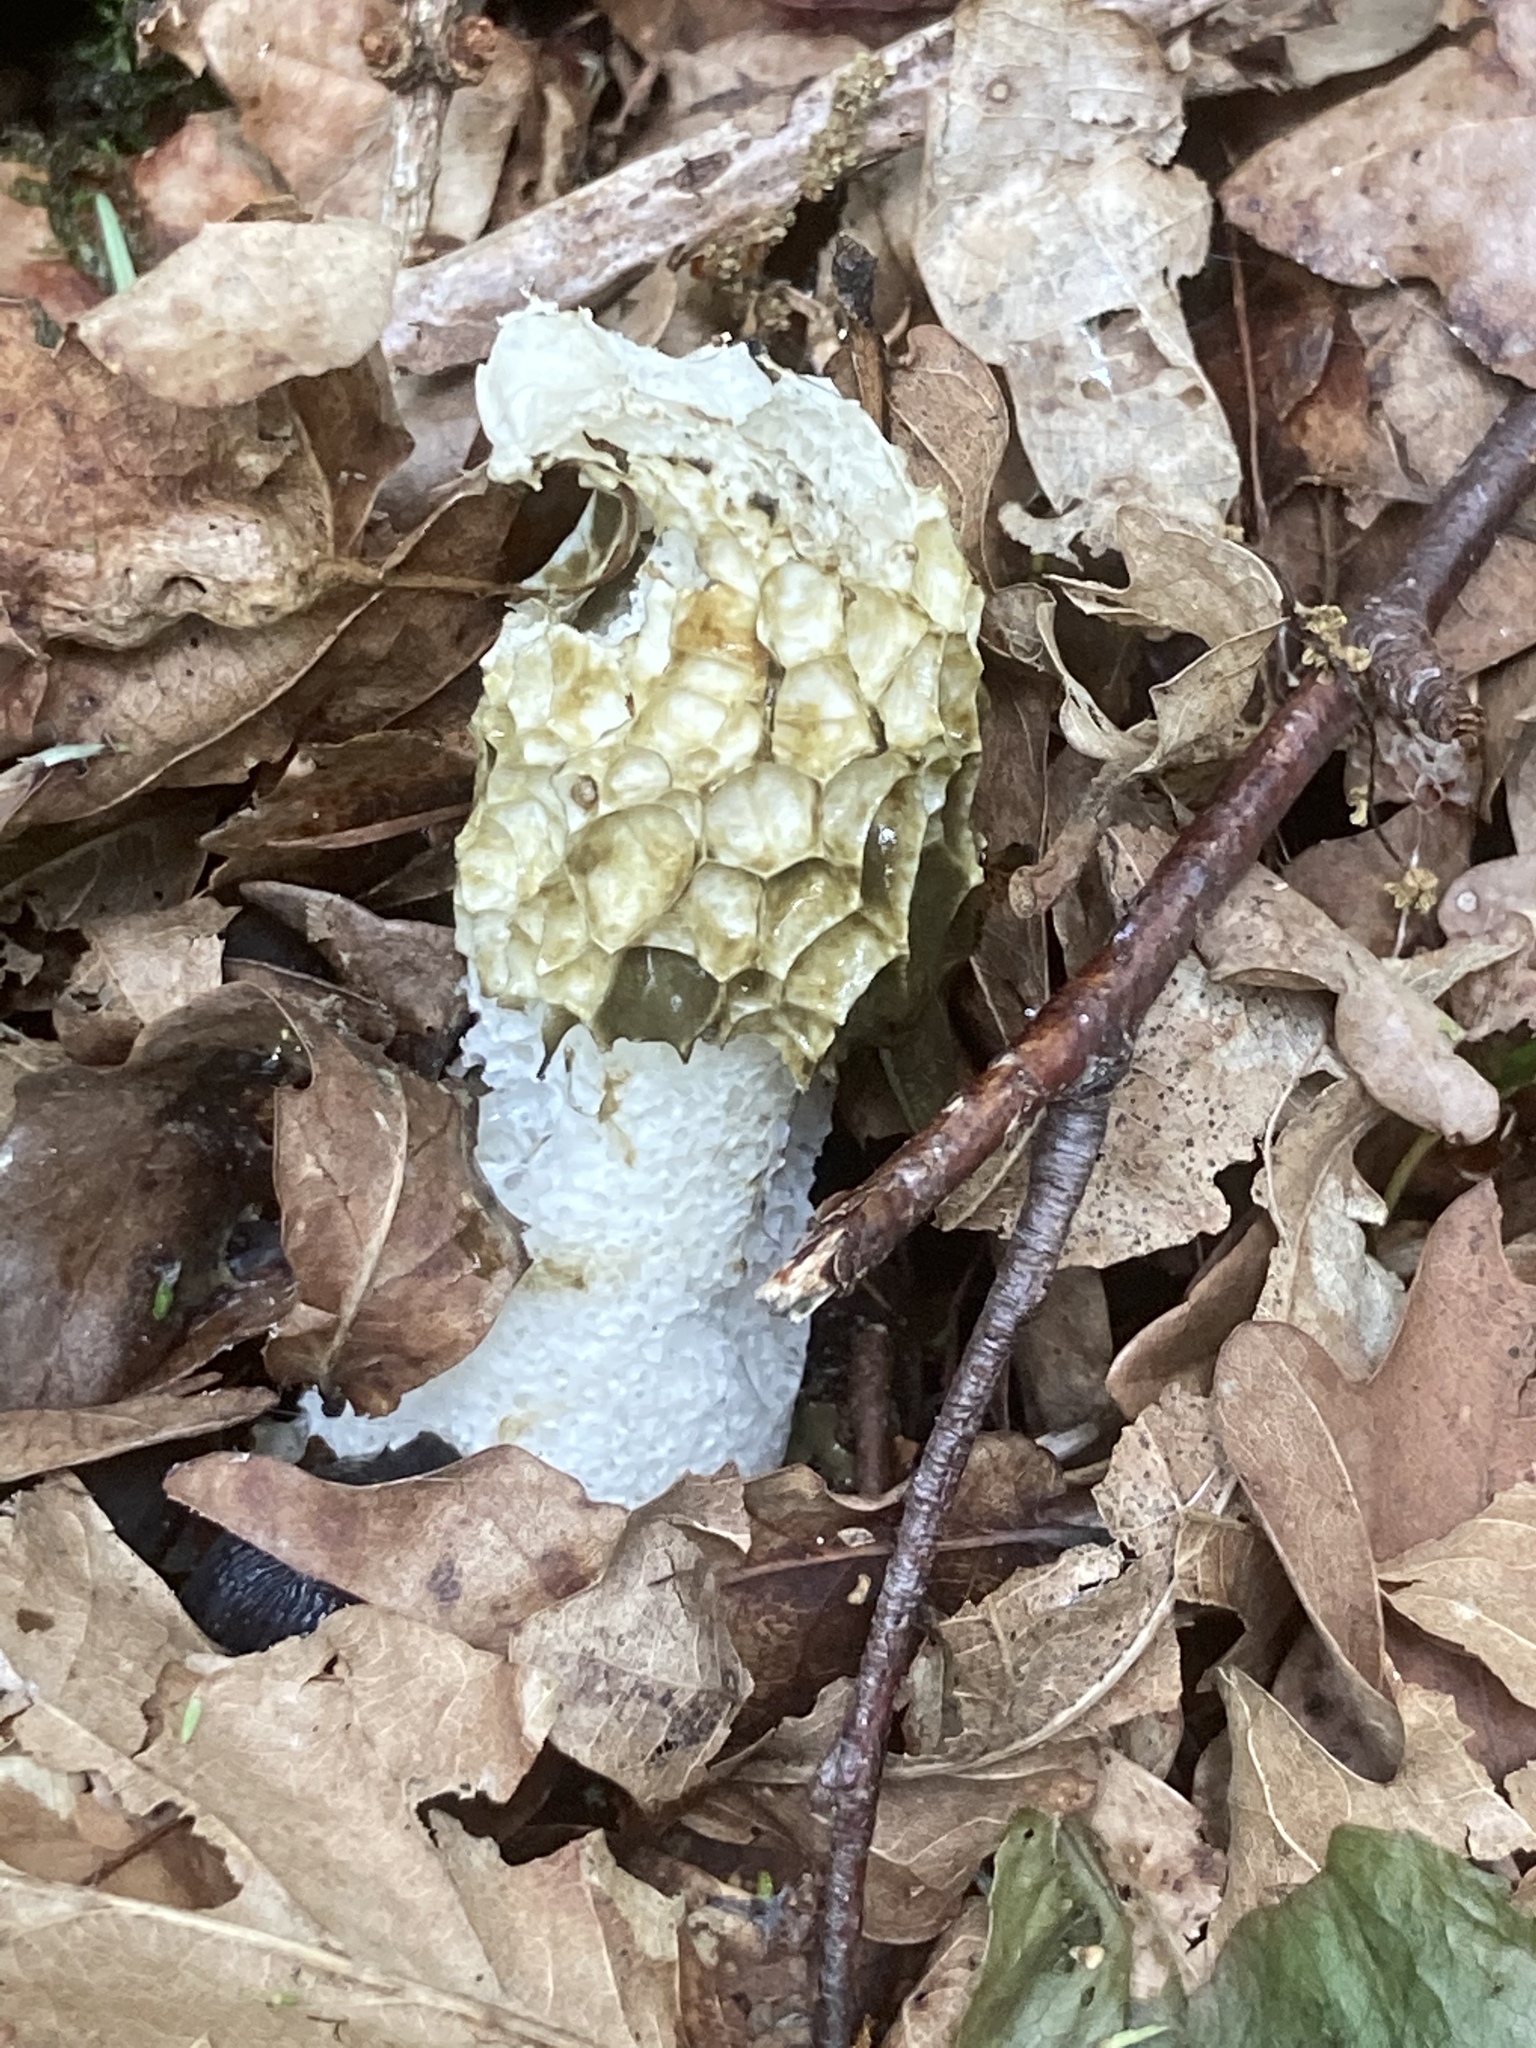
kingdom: Fungi
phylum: Basidiomycota
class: Agaricomycetes
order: Phallales
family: Phallaceae
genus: Phallus
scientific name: Phallus impudicus
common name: Common stinkhorn
